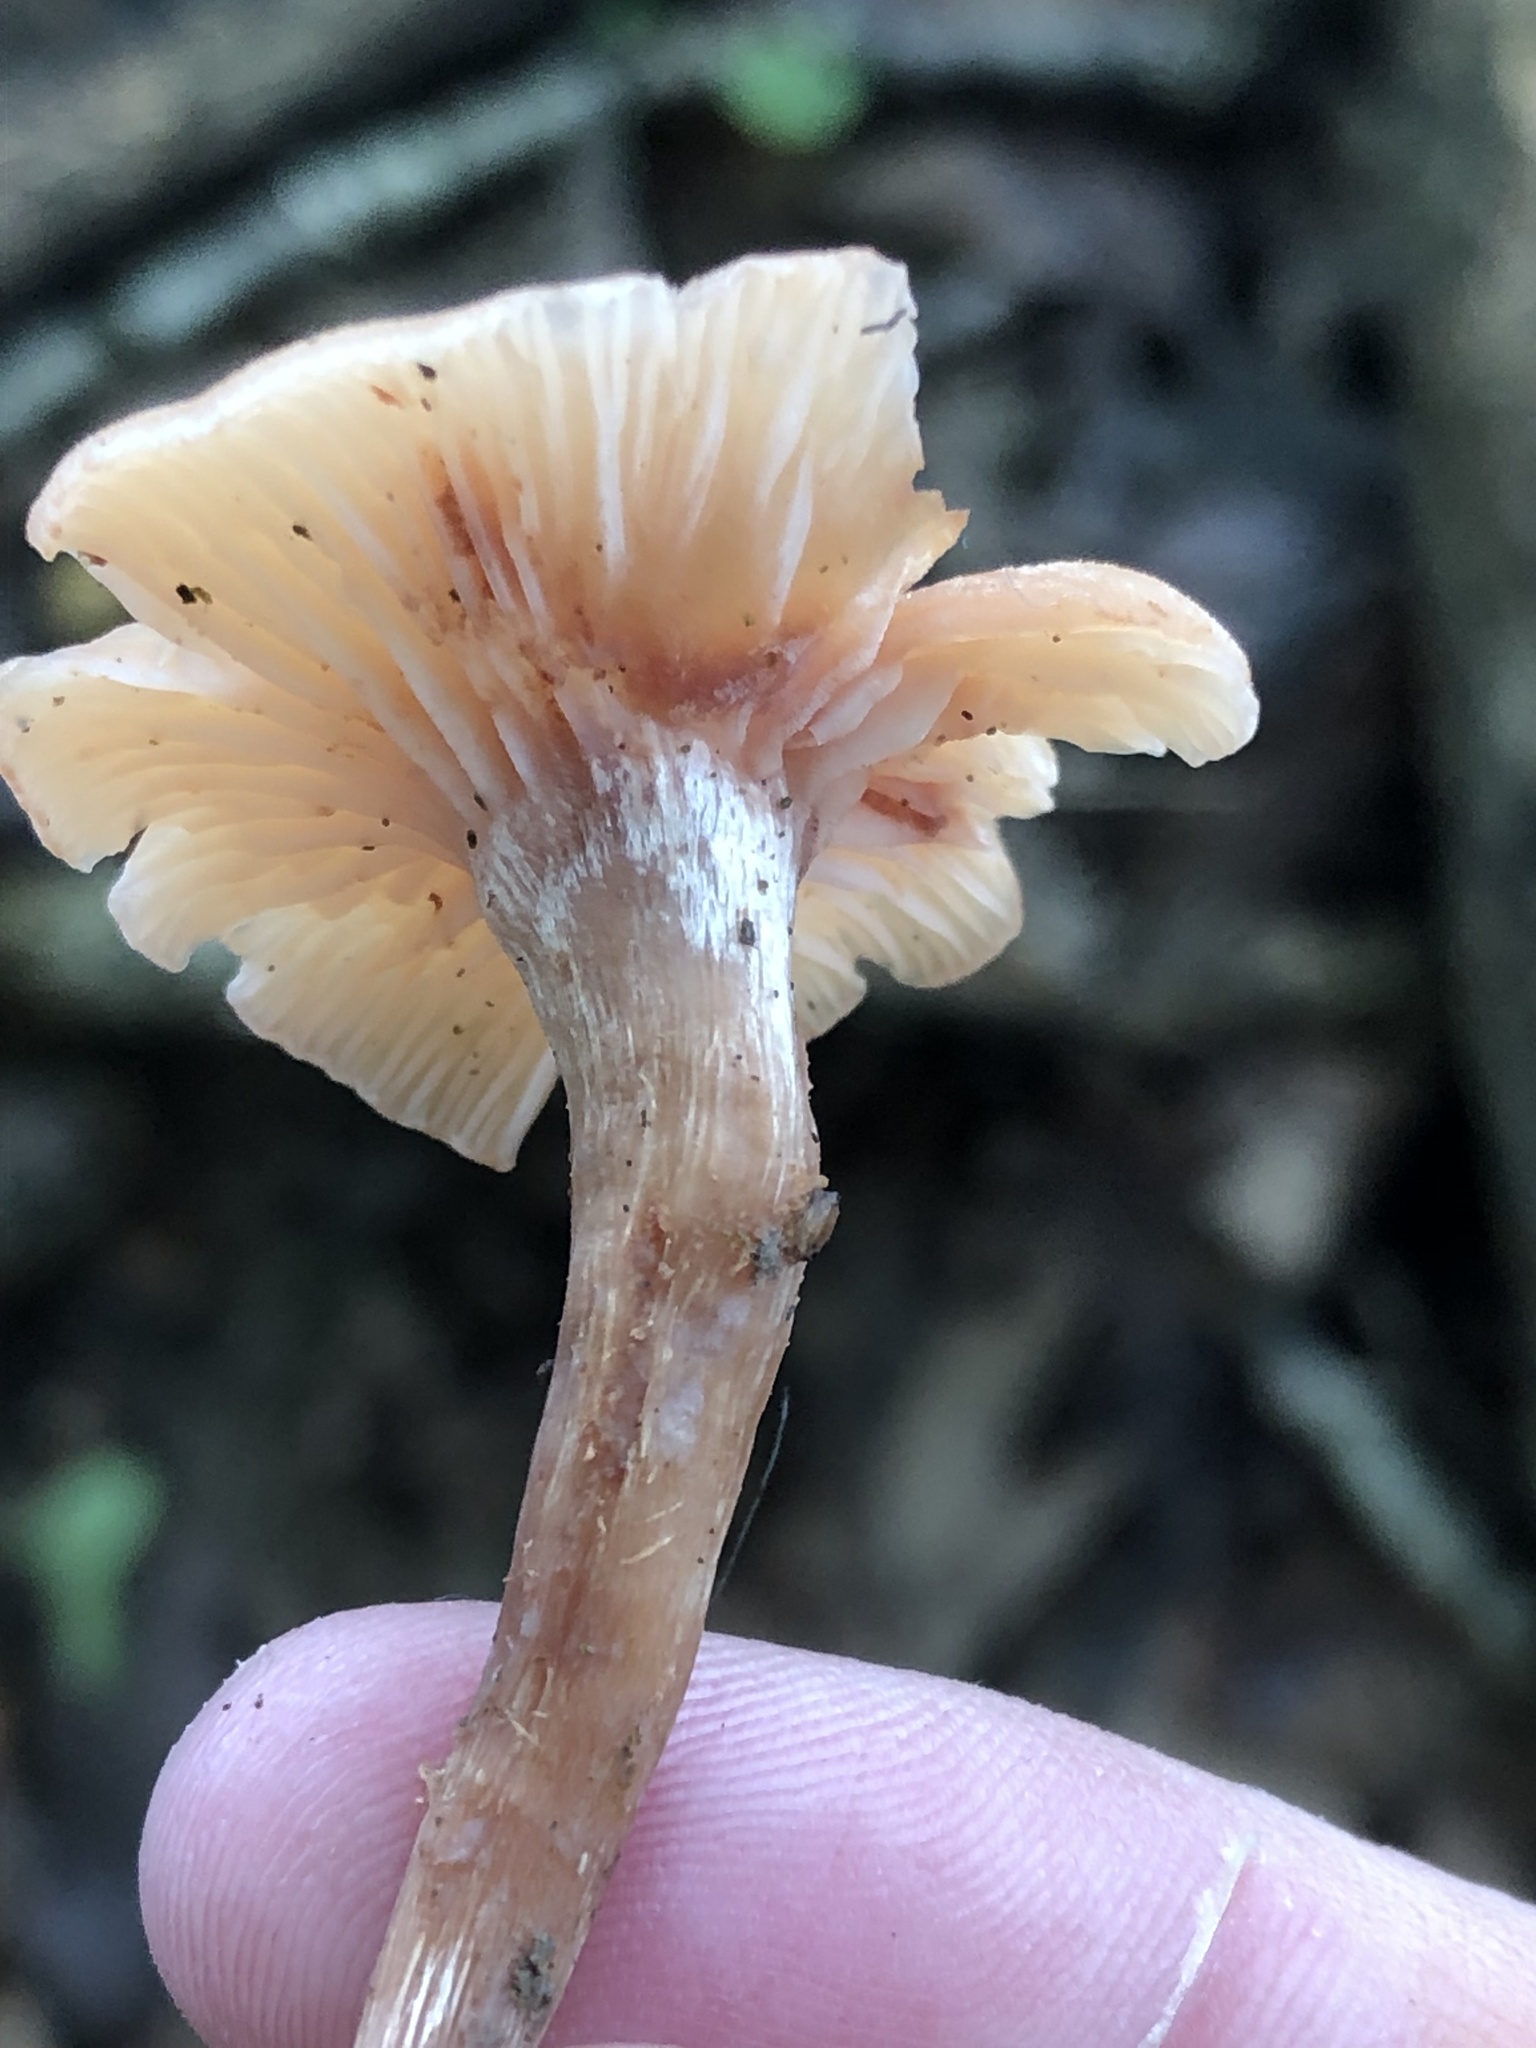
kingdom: Fungi
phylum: Basidiomycota
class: Agaricomycetes
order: Agaricales
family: Hydnangiaceae
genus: Laccaria
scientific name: Laccaria laccata
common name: Deceiver
